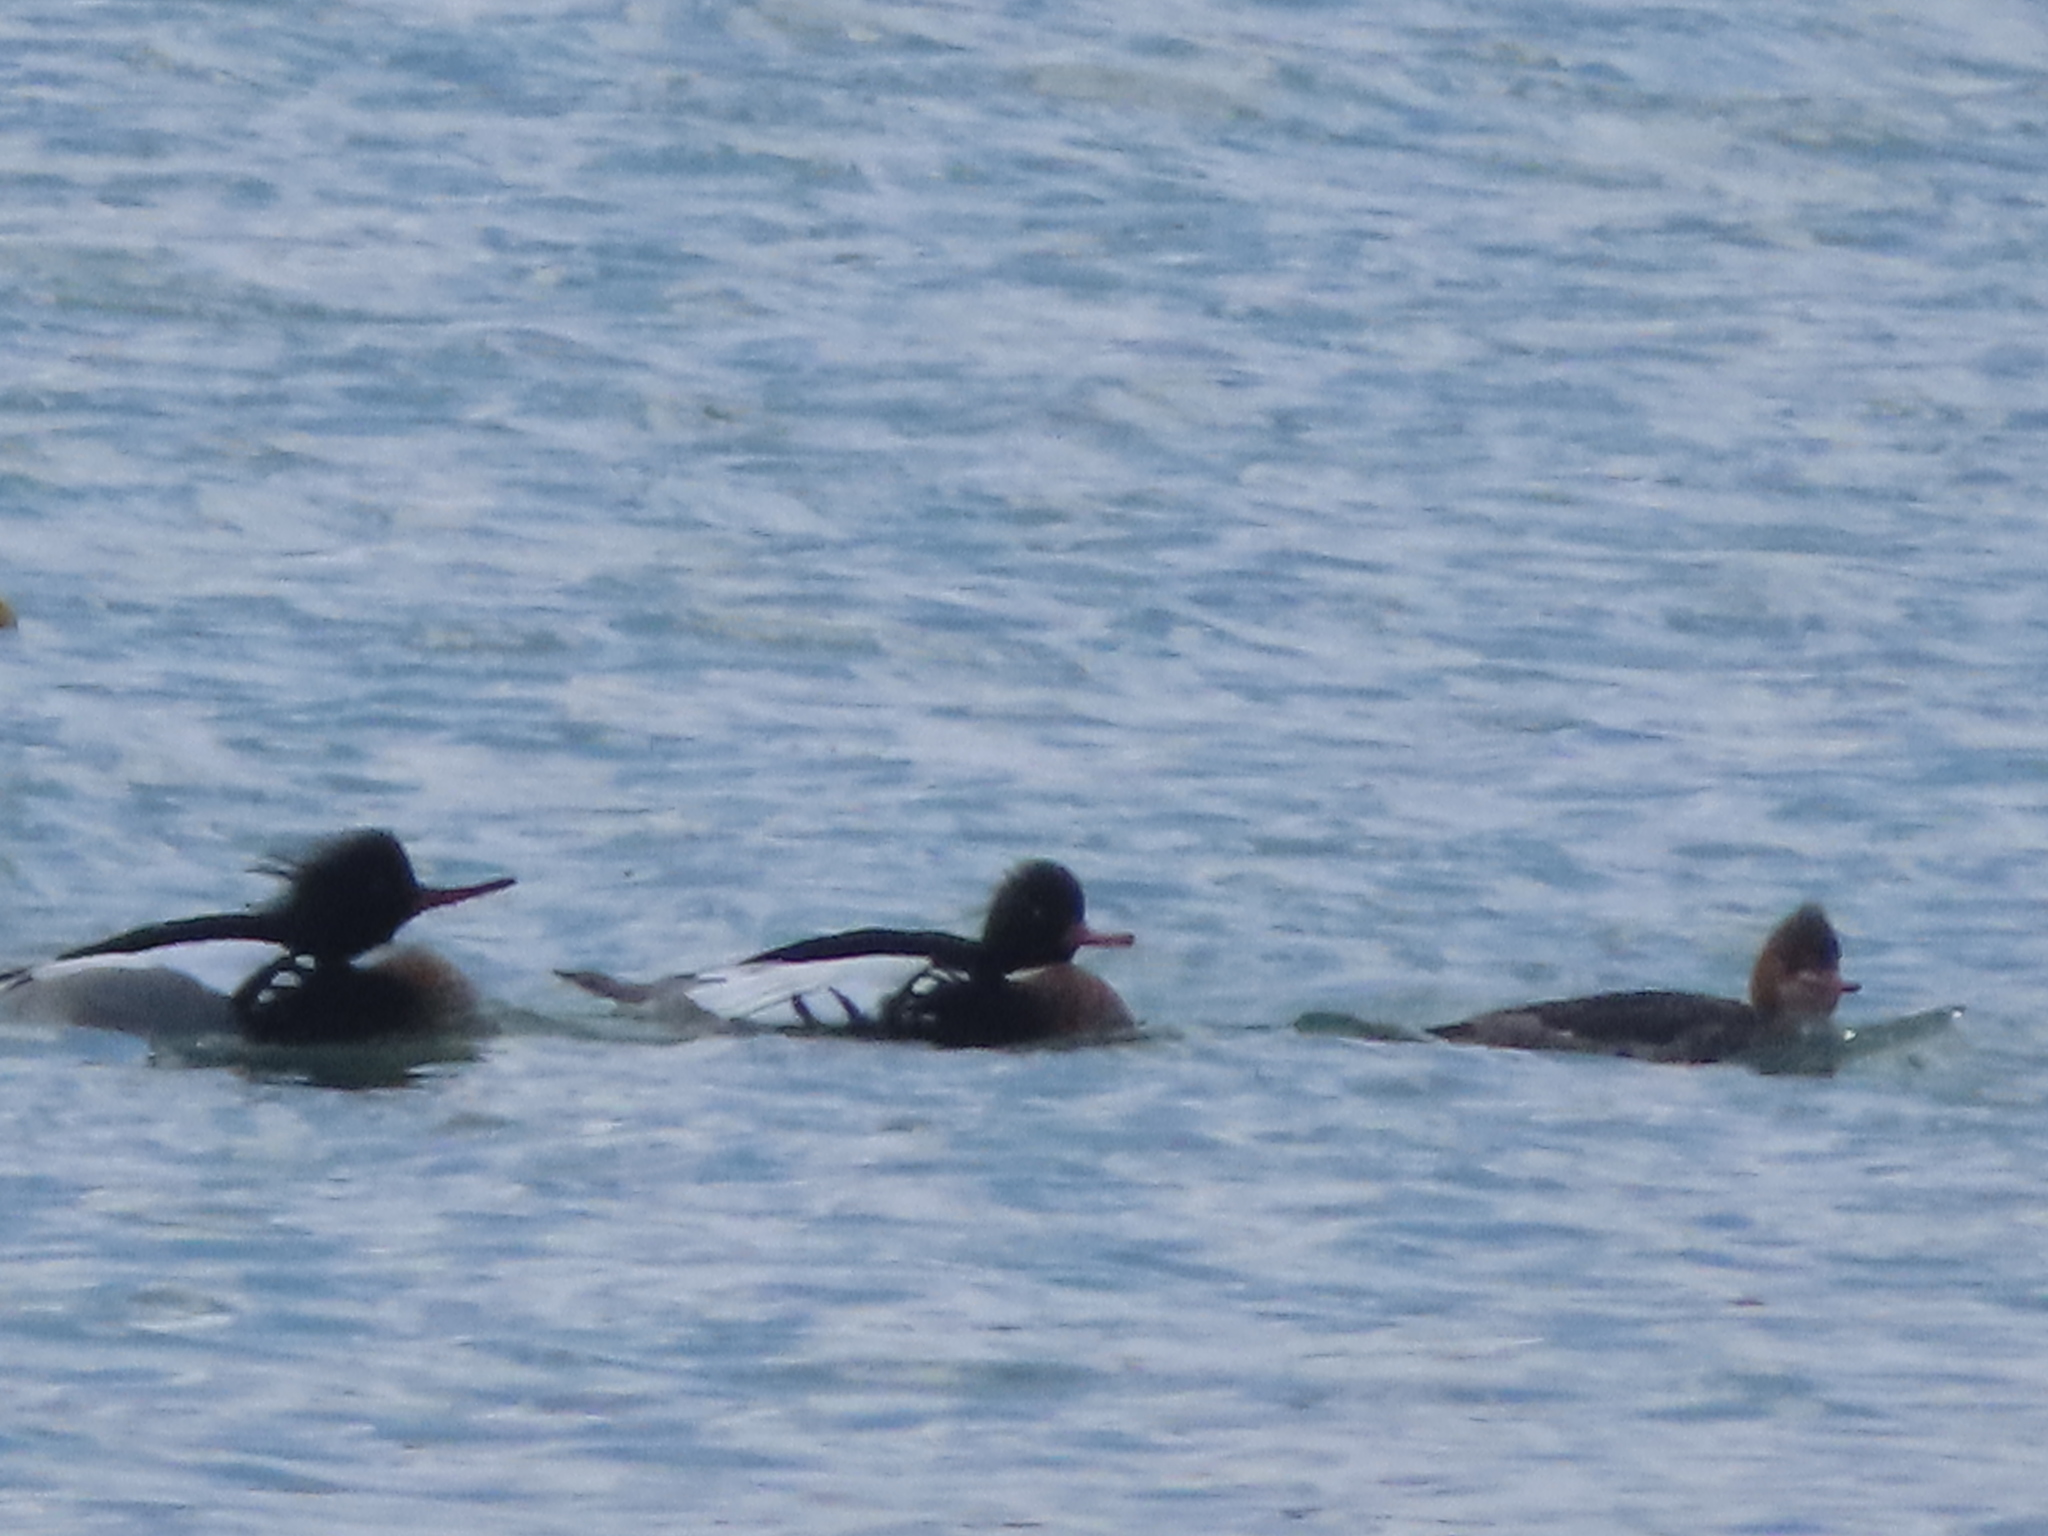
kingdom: Animalia
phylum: Chordata
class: Aves
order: Anseriformes
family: Anatidae
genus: Mergus
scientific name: Mergus serrator
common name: Red-breasted merganser
